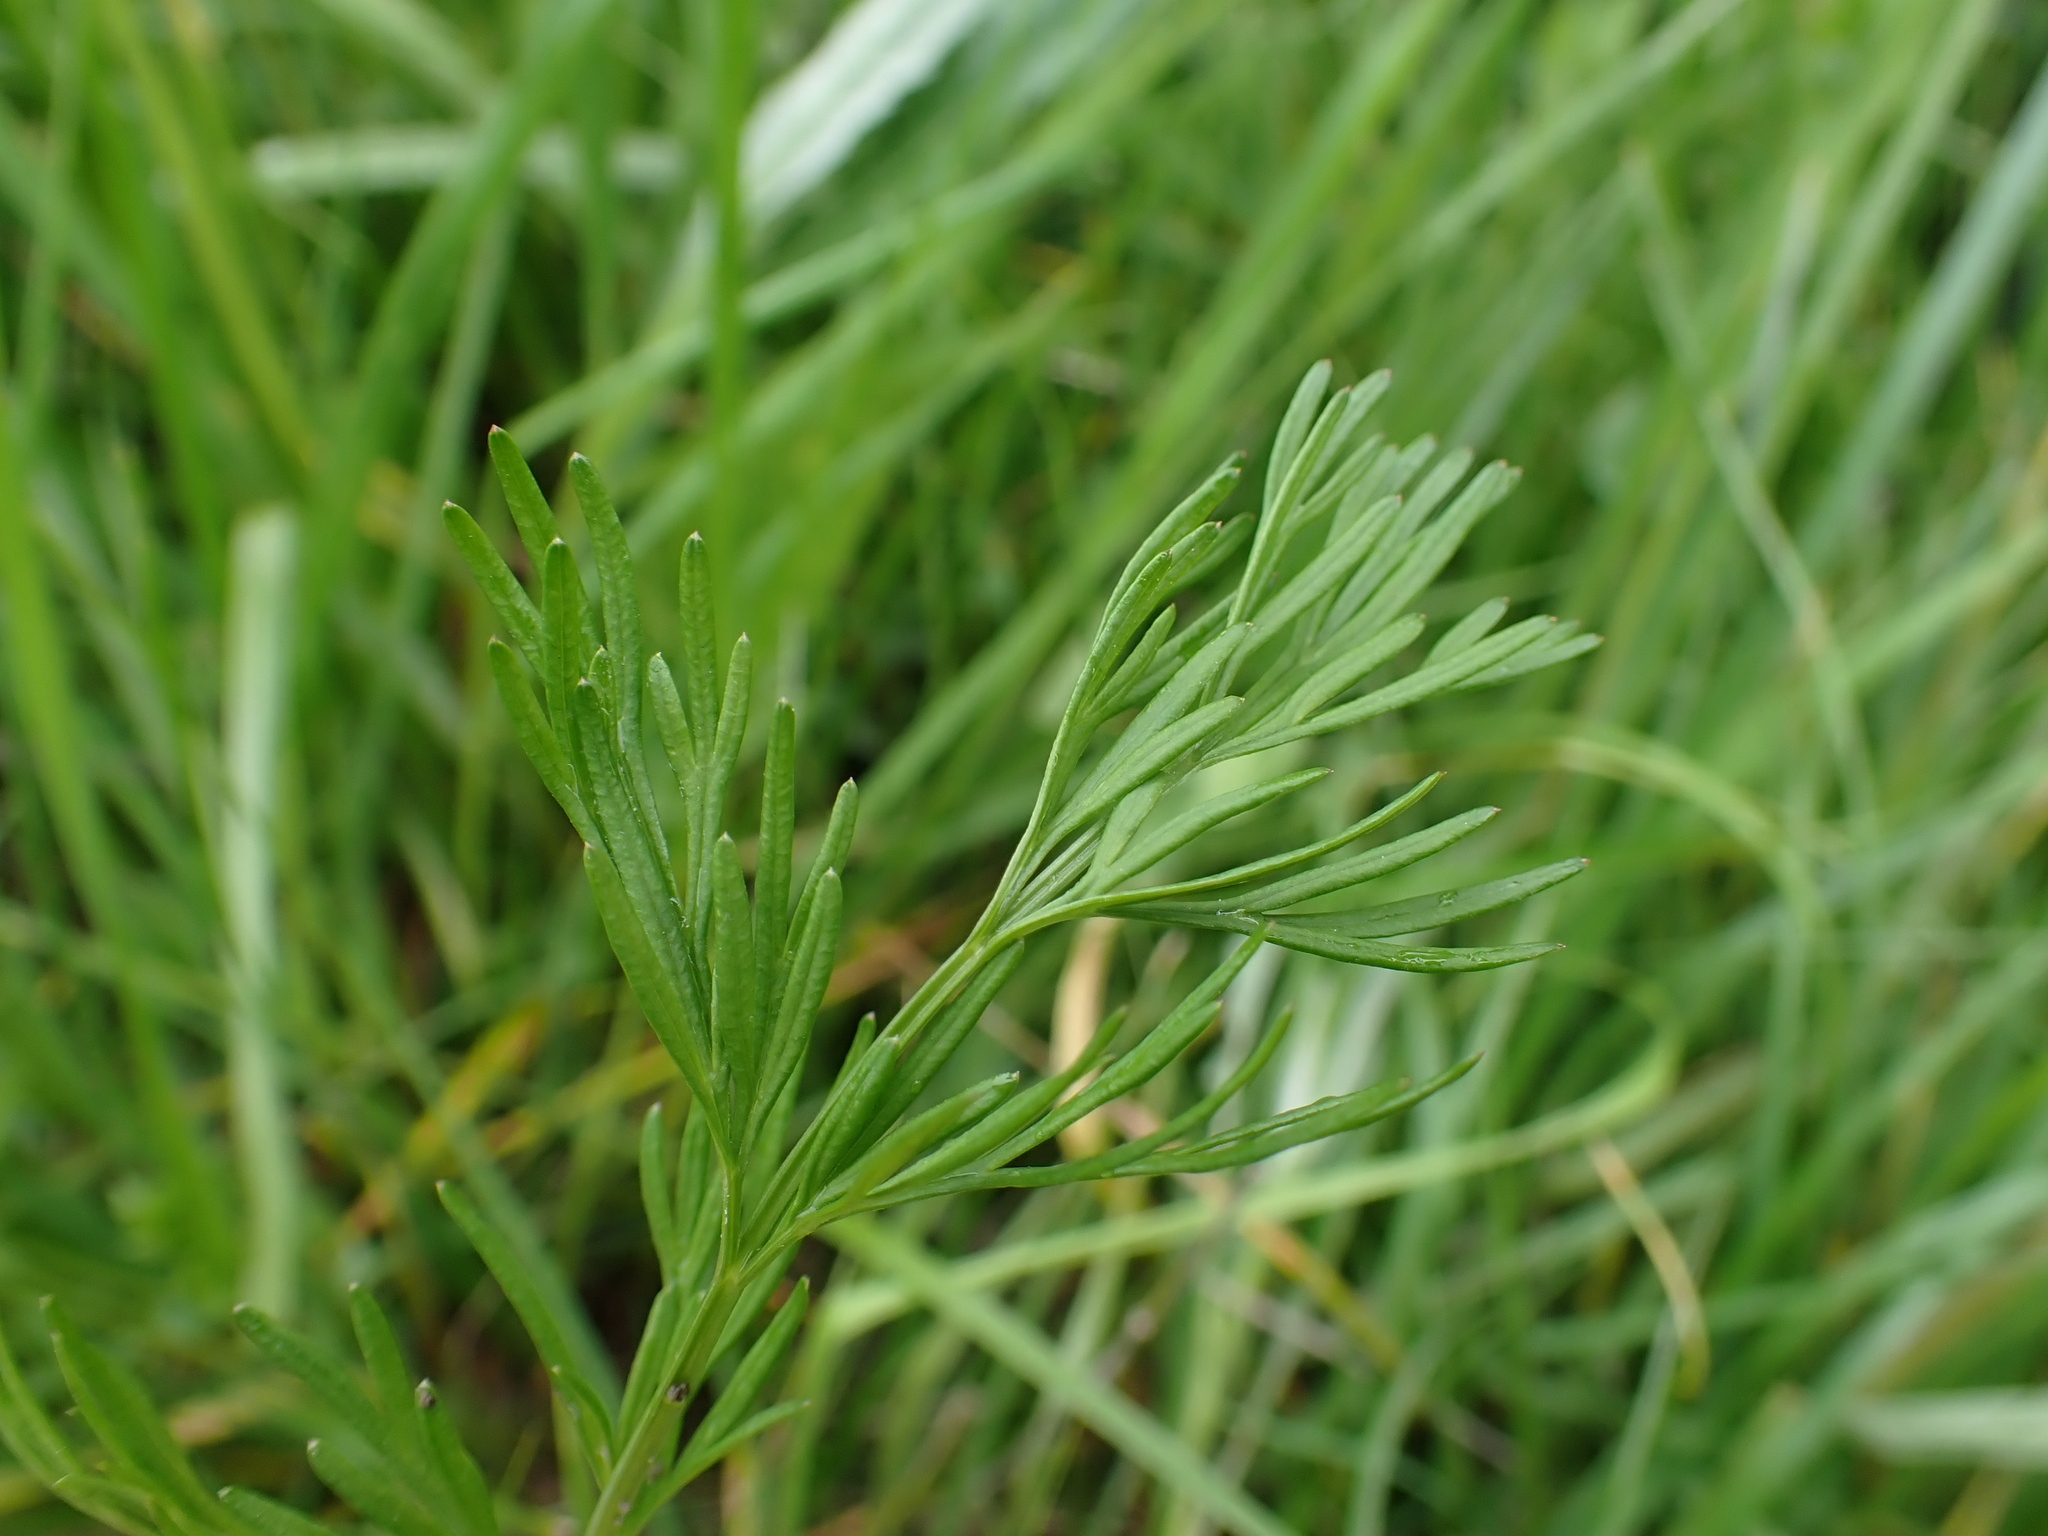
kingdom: Plantae
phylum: Tracheophyta
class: Magnoliopsida
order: Apiales
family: Apiaceae
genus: Kadenia
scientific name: Kadenia dubia
